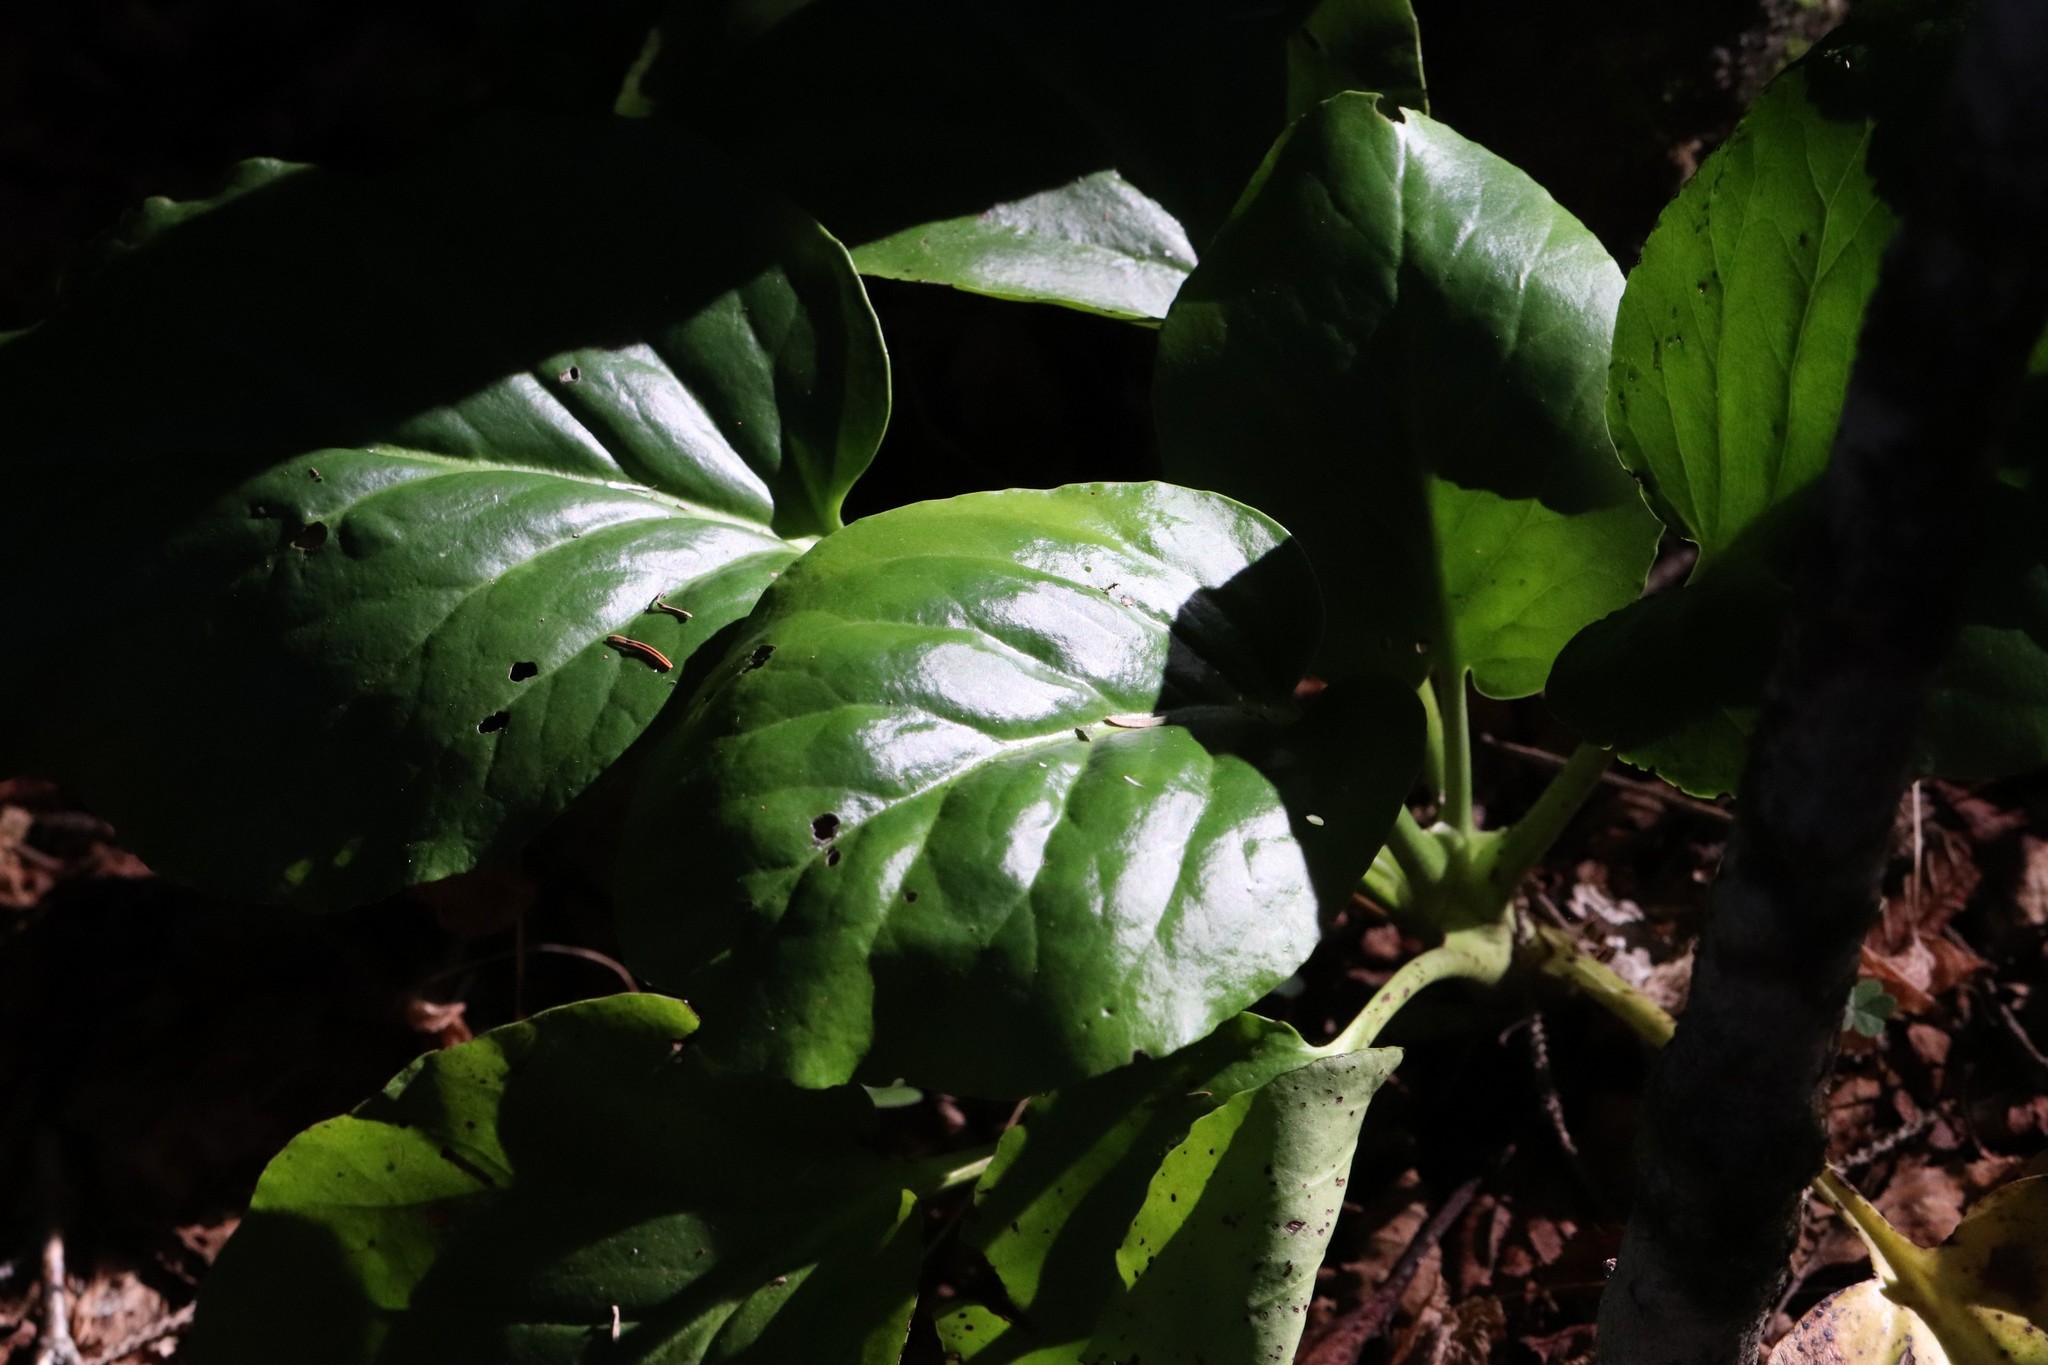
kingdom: Plantae
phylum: Tracheophyta
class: Magnoliopsida
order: Saxifragales
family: Saxifragaceae
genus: Bergenia
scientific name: Bergenia crassifolia
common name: Elephant-ears
